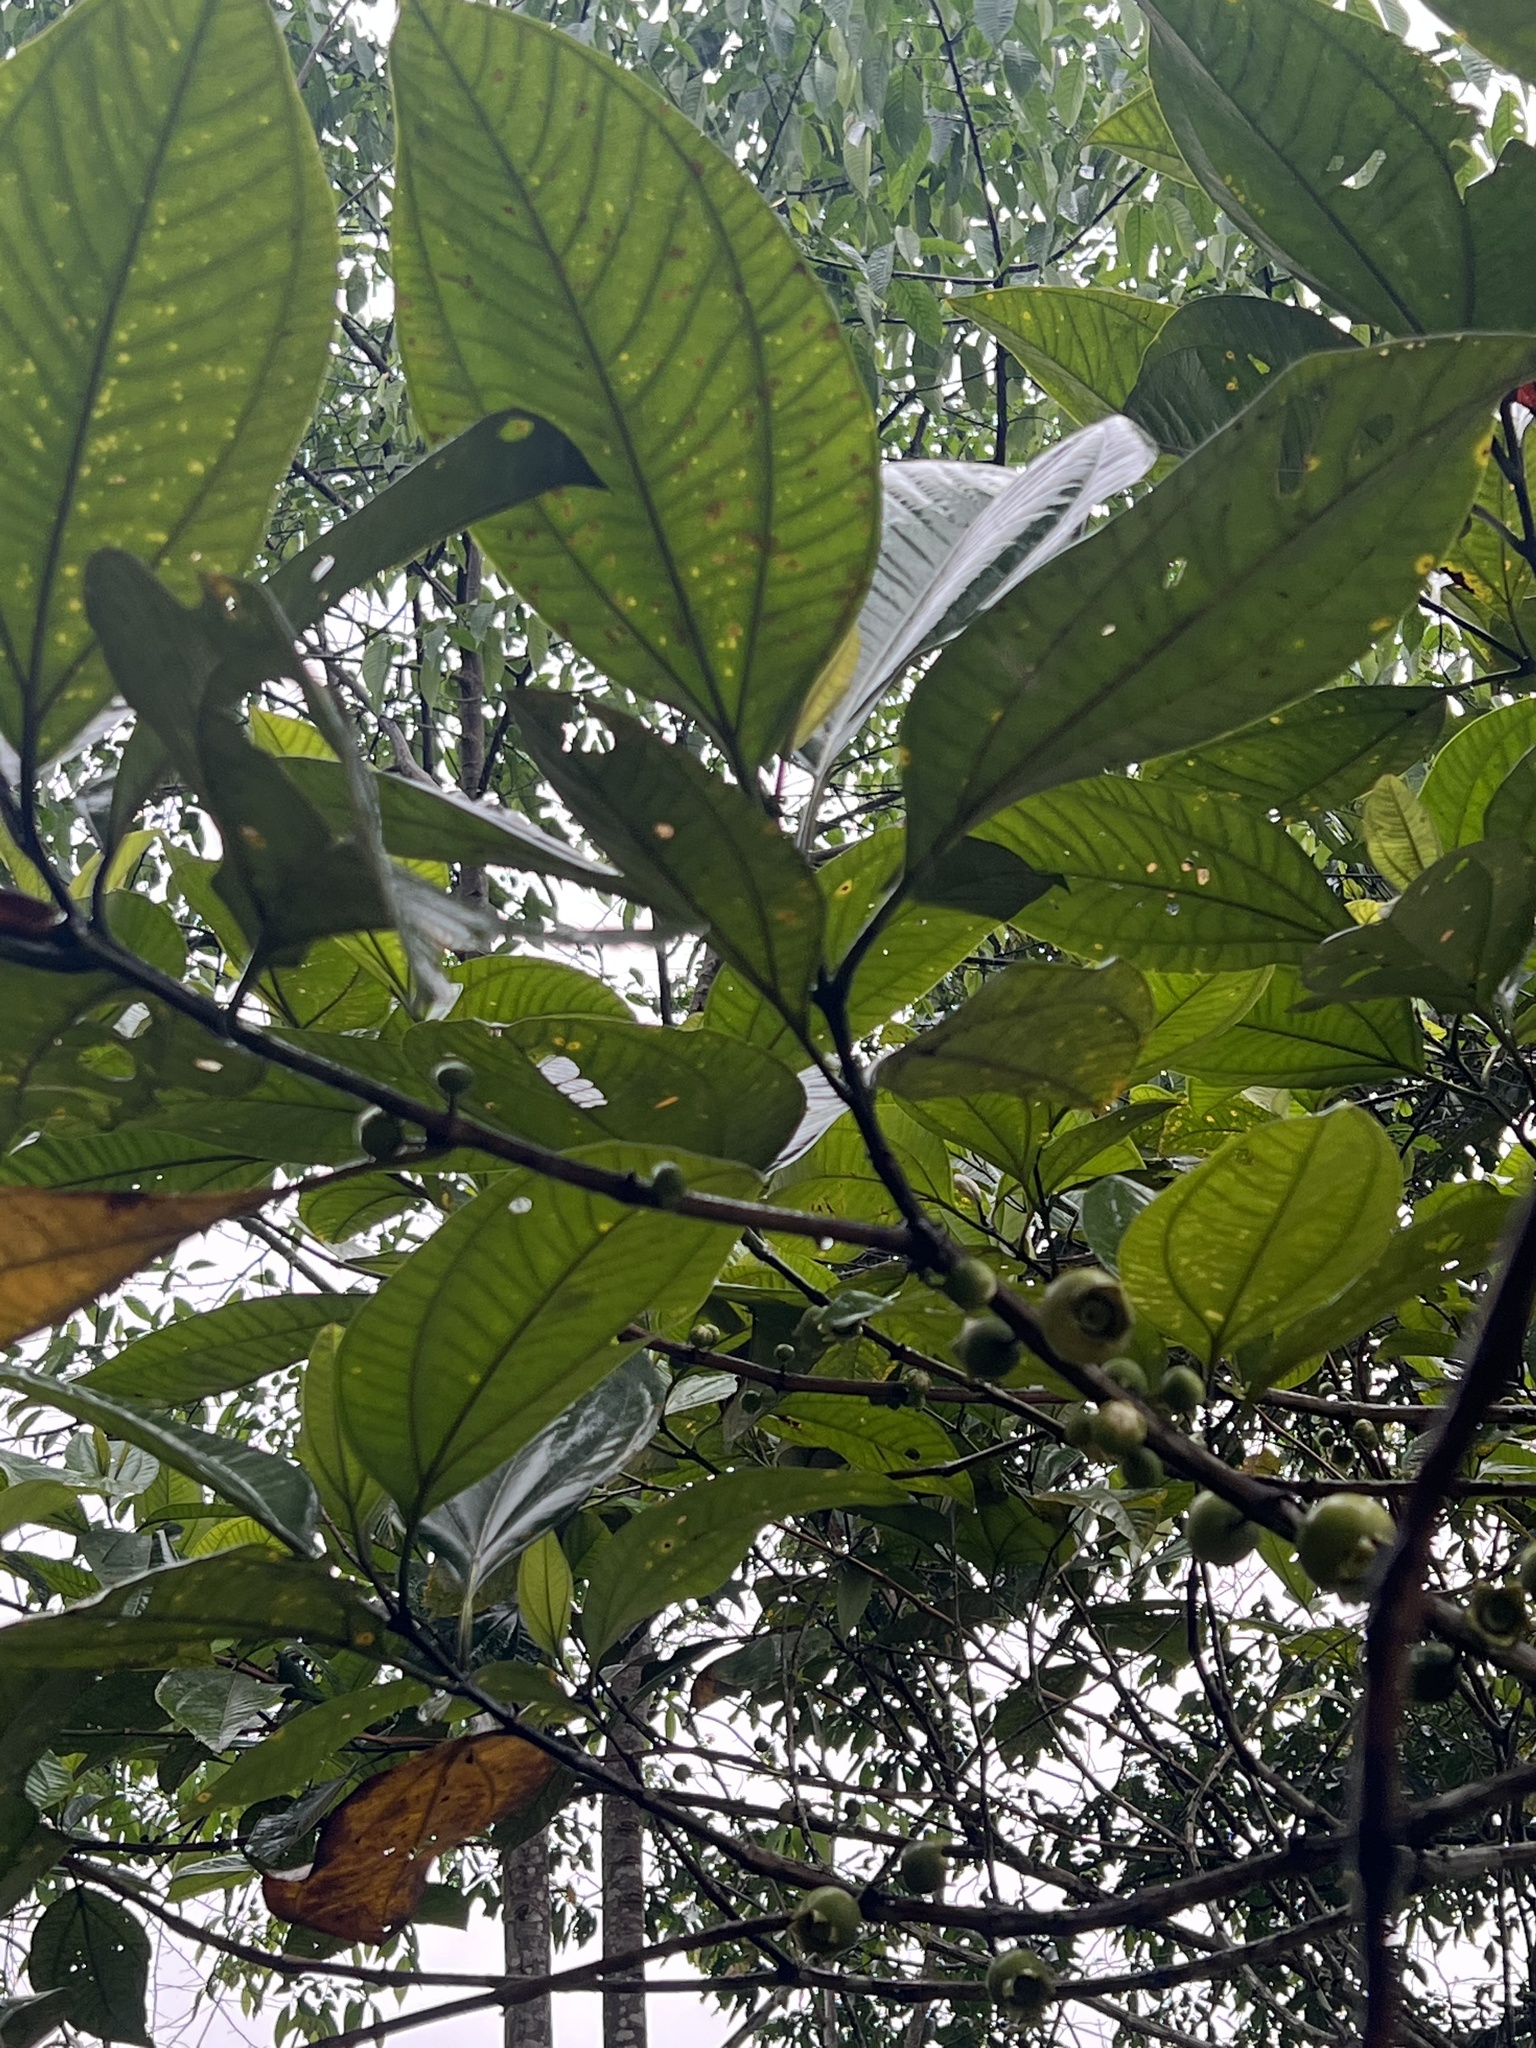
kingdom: Plantae
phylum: Tracheophyta
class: Magnoliopsida
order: Myrtales
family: Melastomataceae
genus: Bellucia
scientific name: Bellucia pentamera
